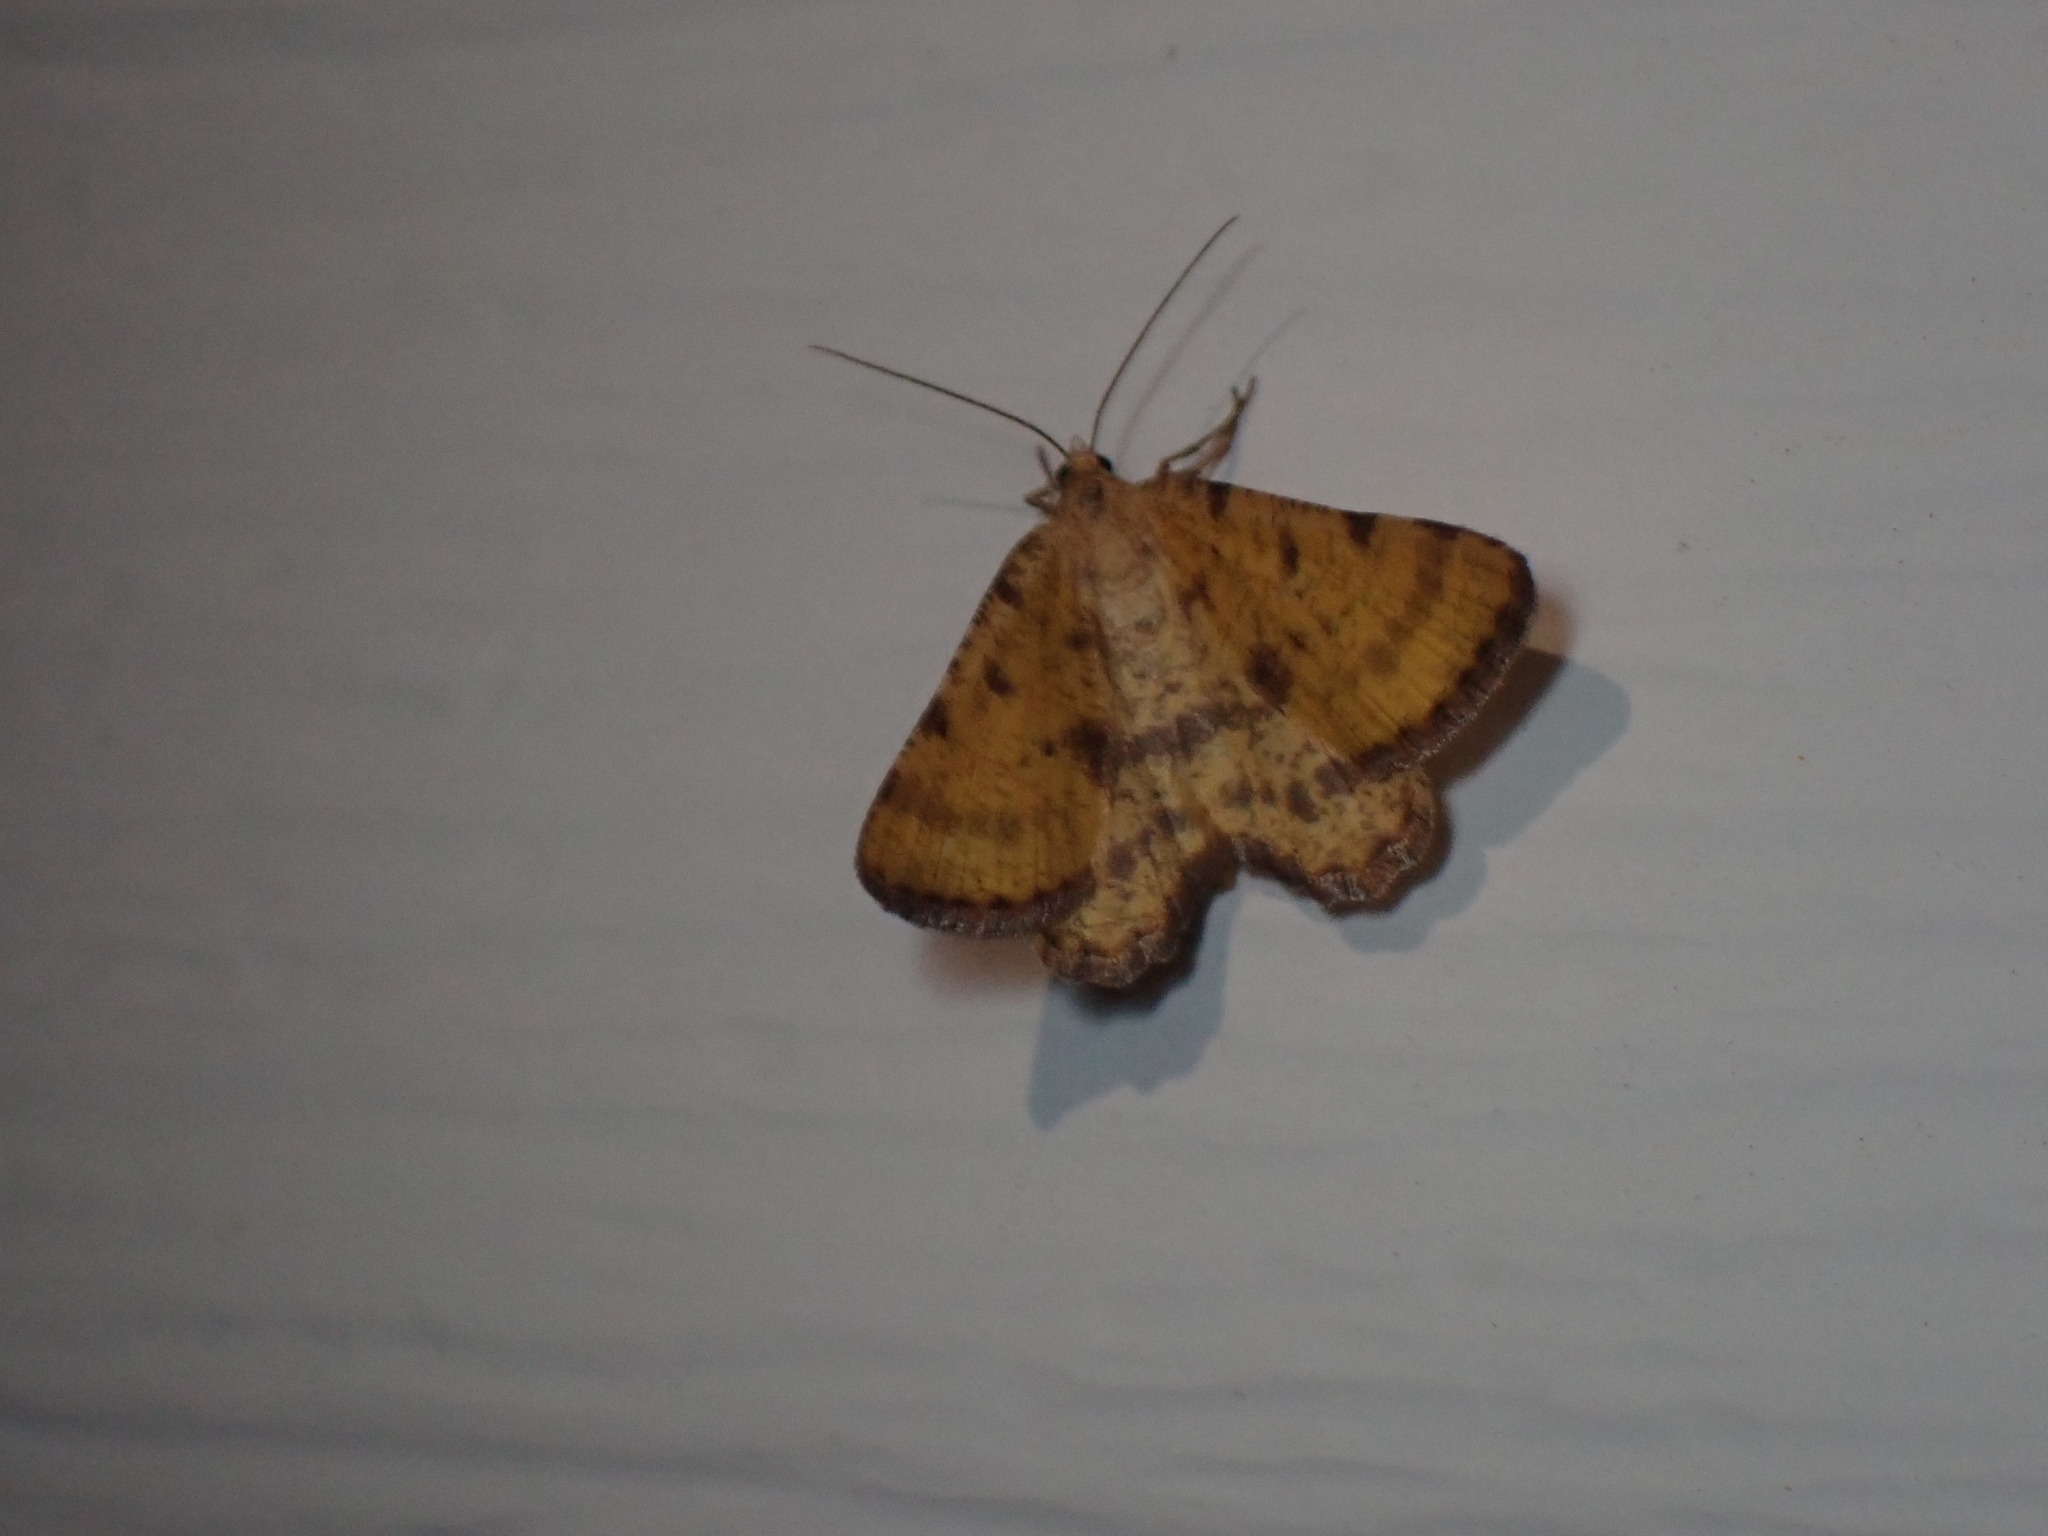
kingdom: Animalia
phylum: Arthropoda
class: Insecta
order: Lepidoptera
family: Geometridae
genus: Macaria
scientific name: Macaria amboflava
